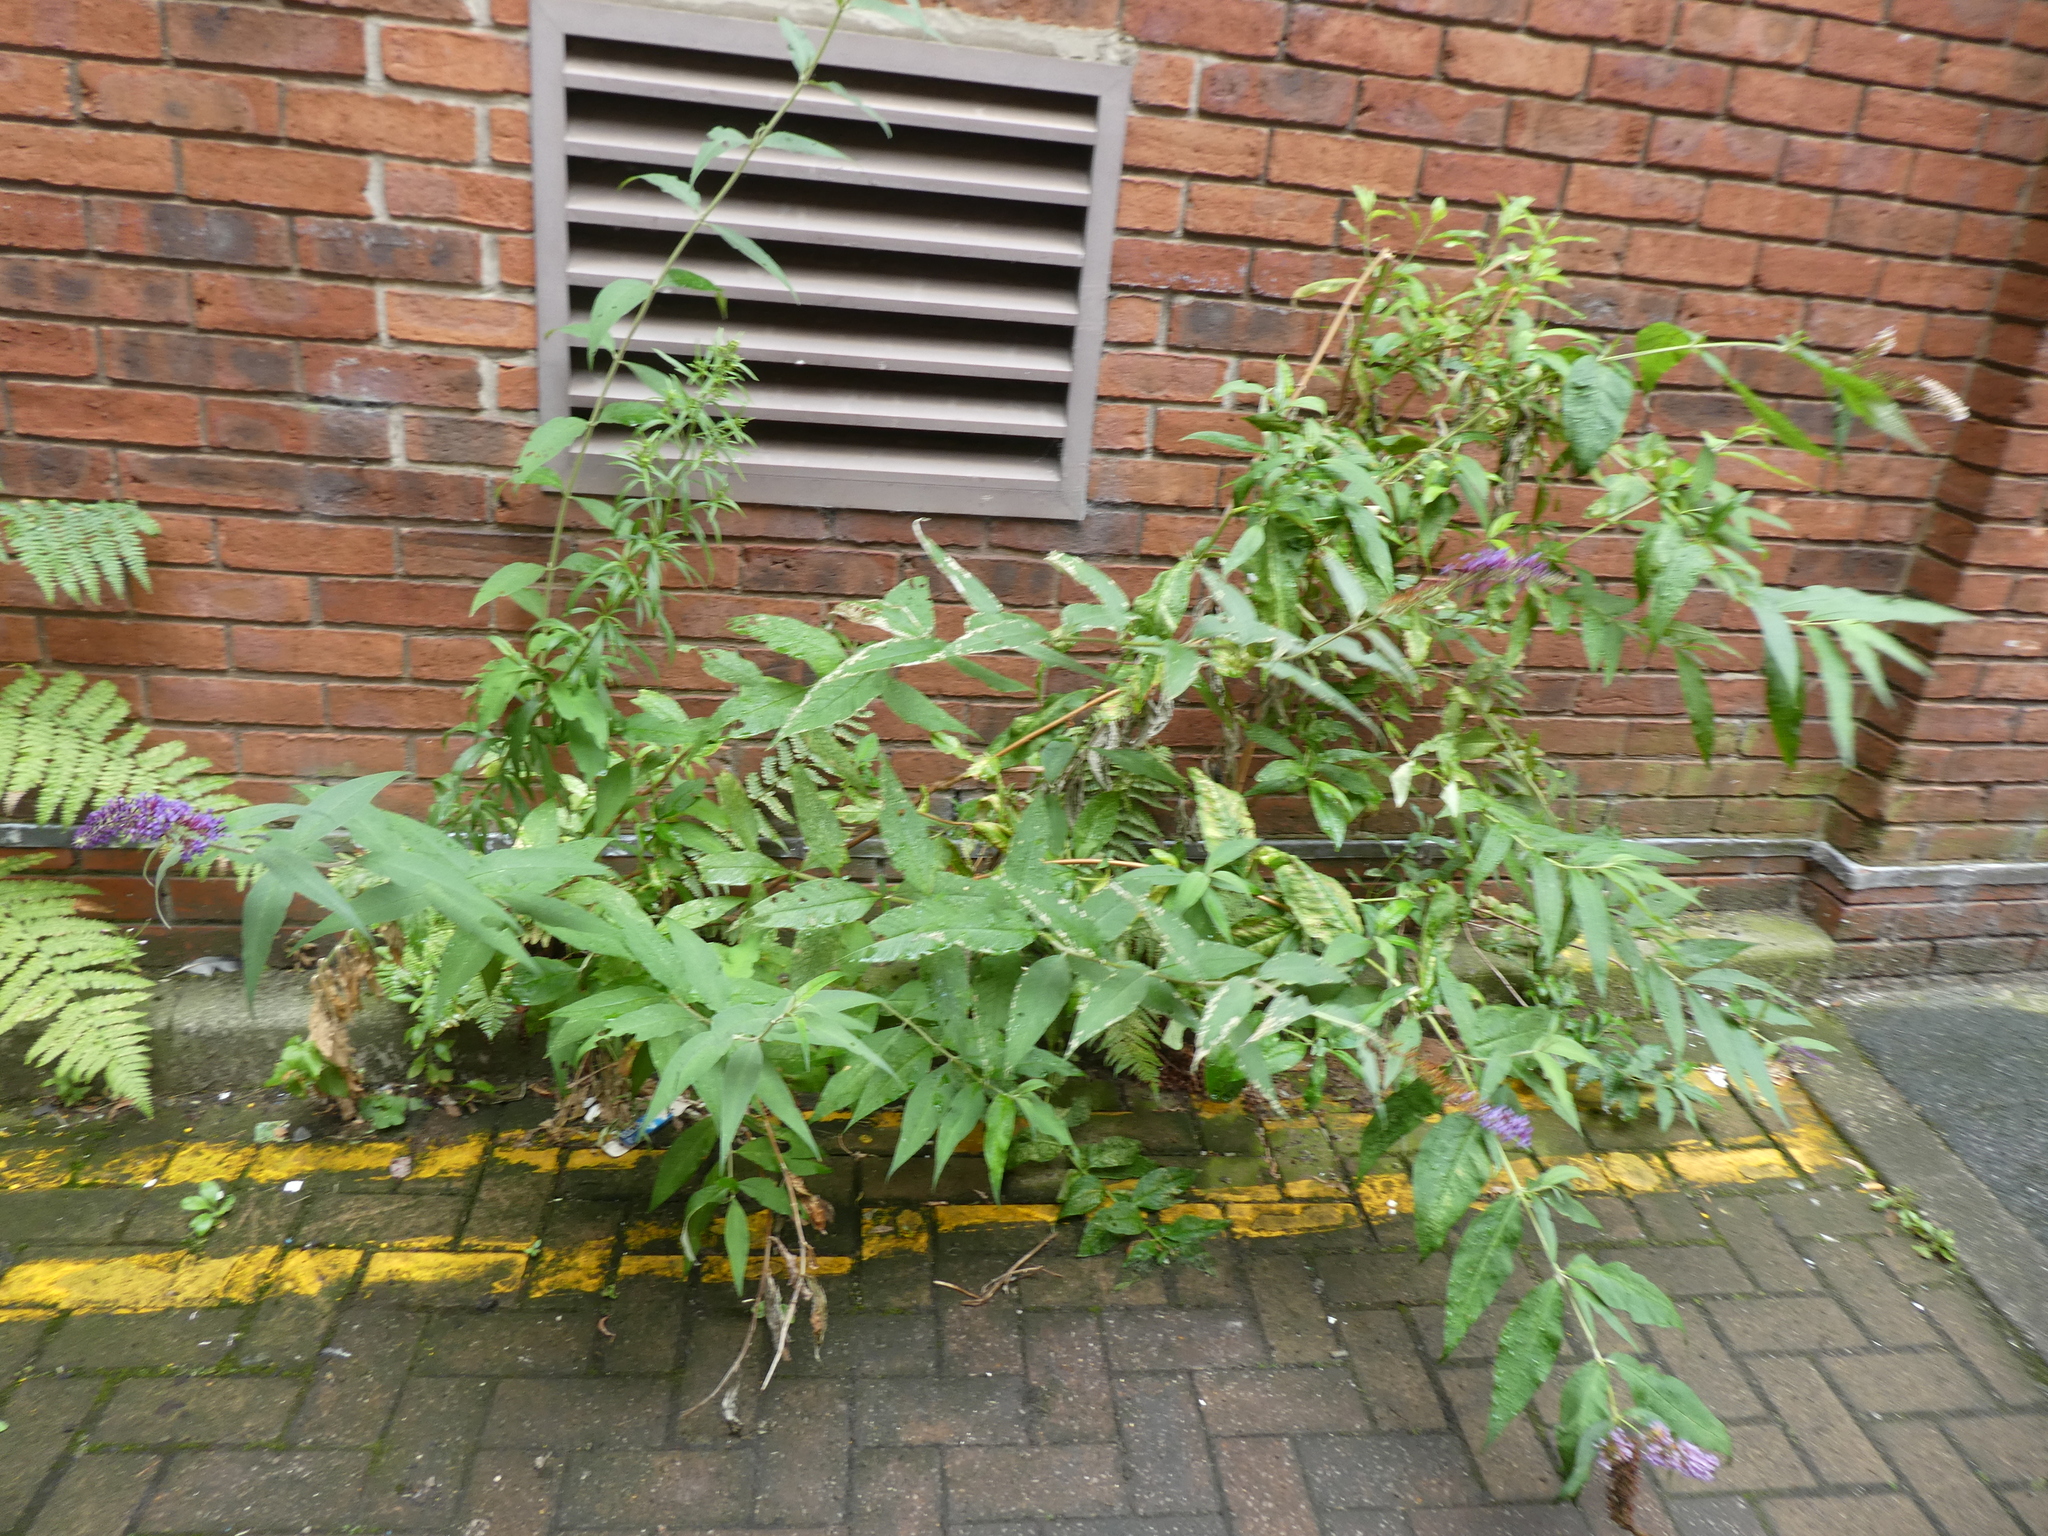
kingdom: Plantae
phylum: Tracheophyta
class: Magnoliopsida
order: Lamiales
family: Scrophulariaceae
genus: Buddleja
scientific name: Buddleja davidii
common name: Butterfly-bush
